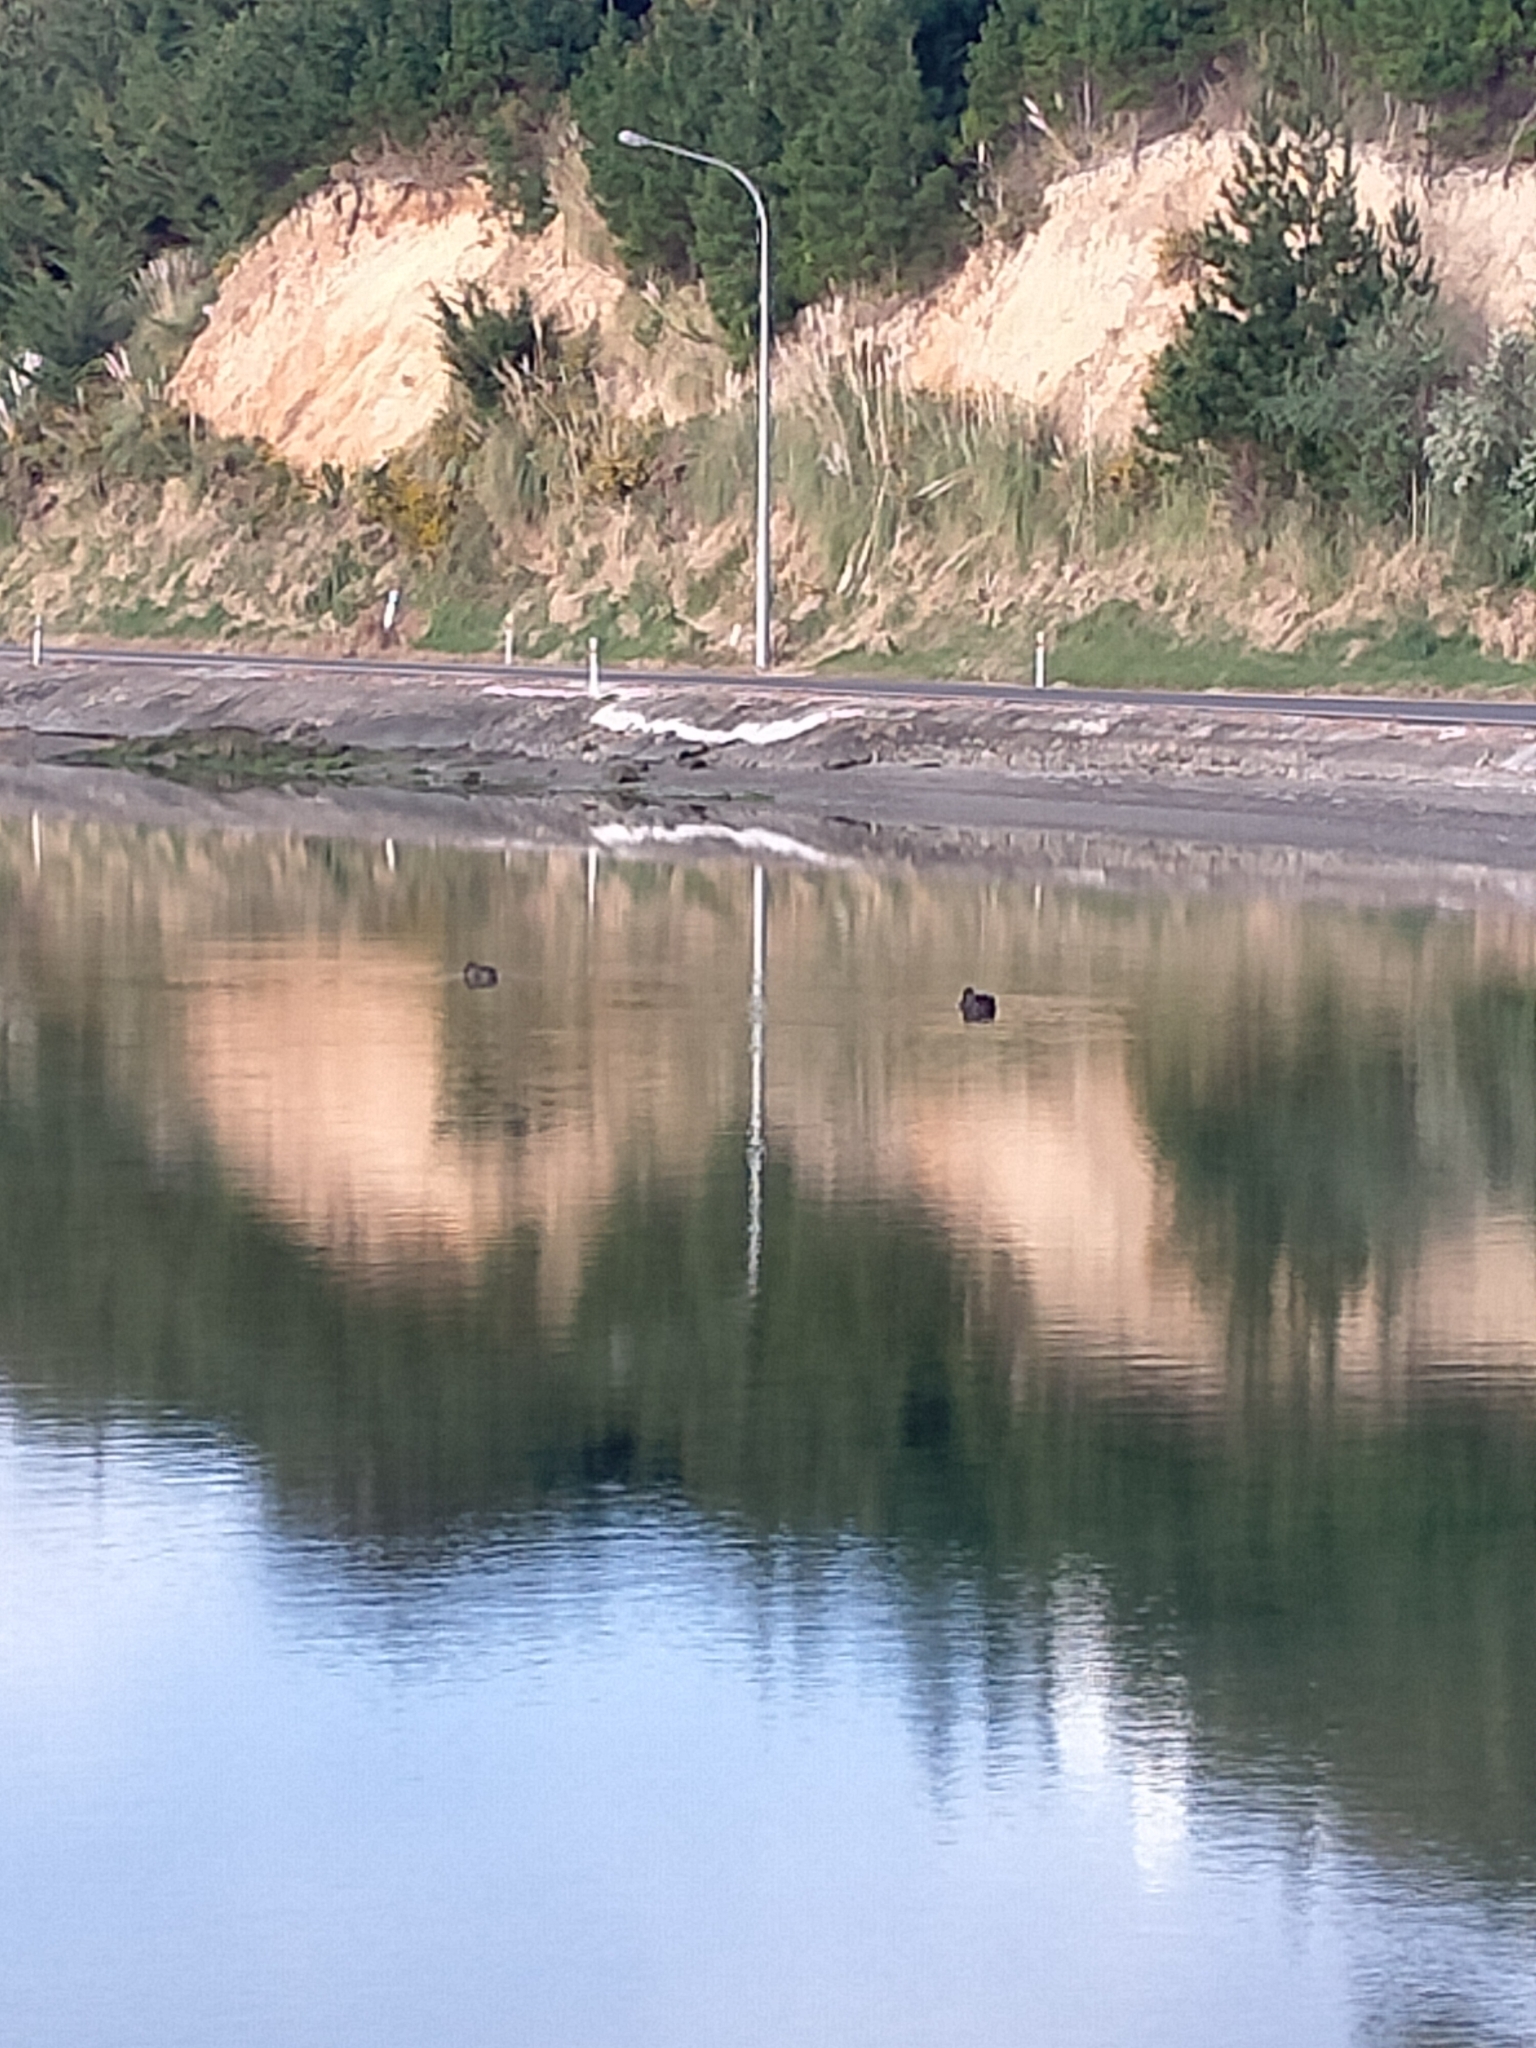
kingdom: Animalia
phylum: Chordata
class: Aves
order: Anseriformes
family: Anatidae
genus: Cygnus
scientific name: Cygnus atratus
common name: Black swan
